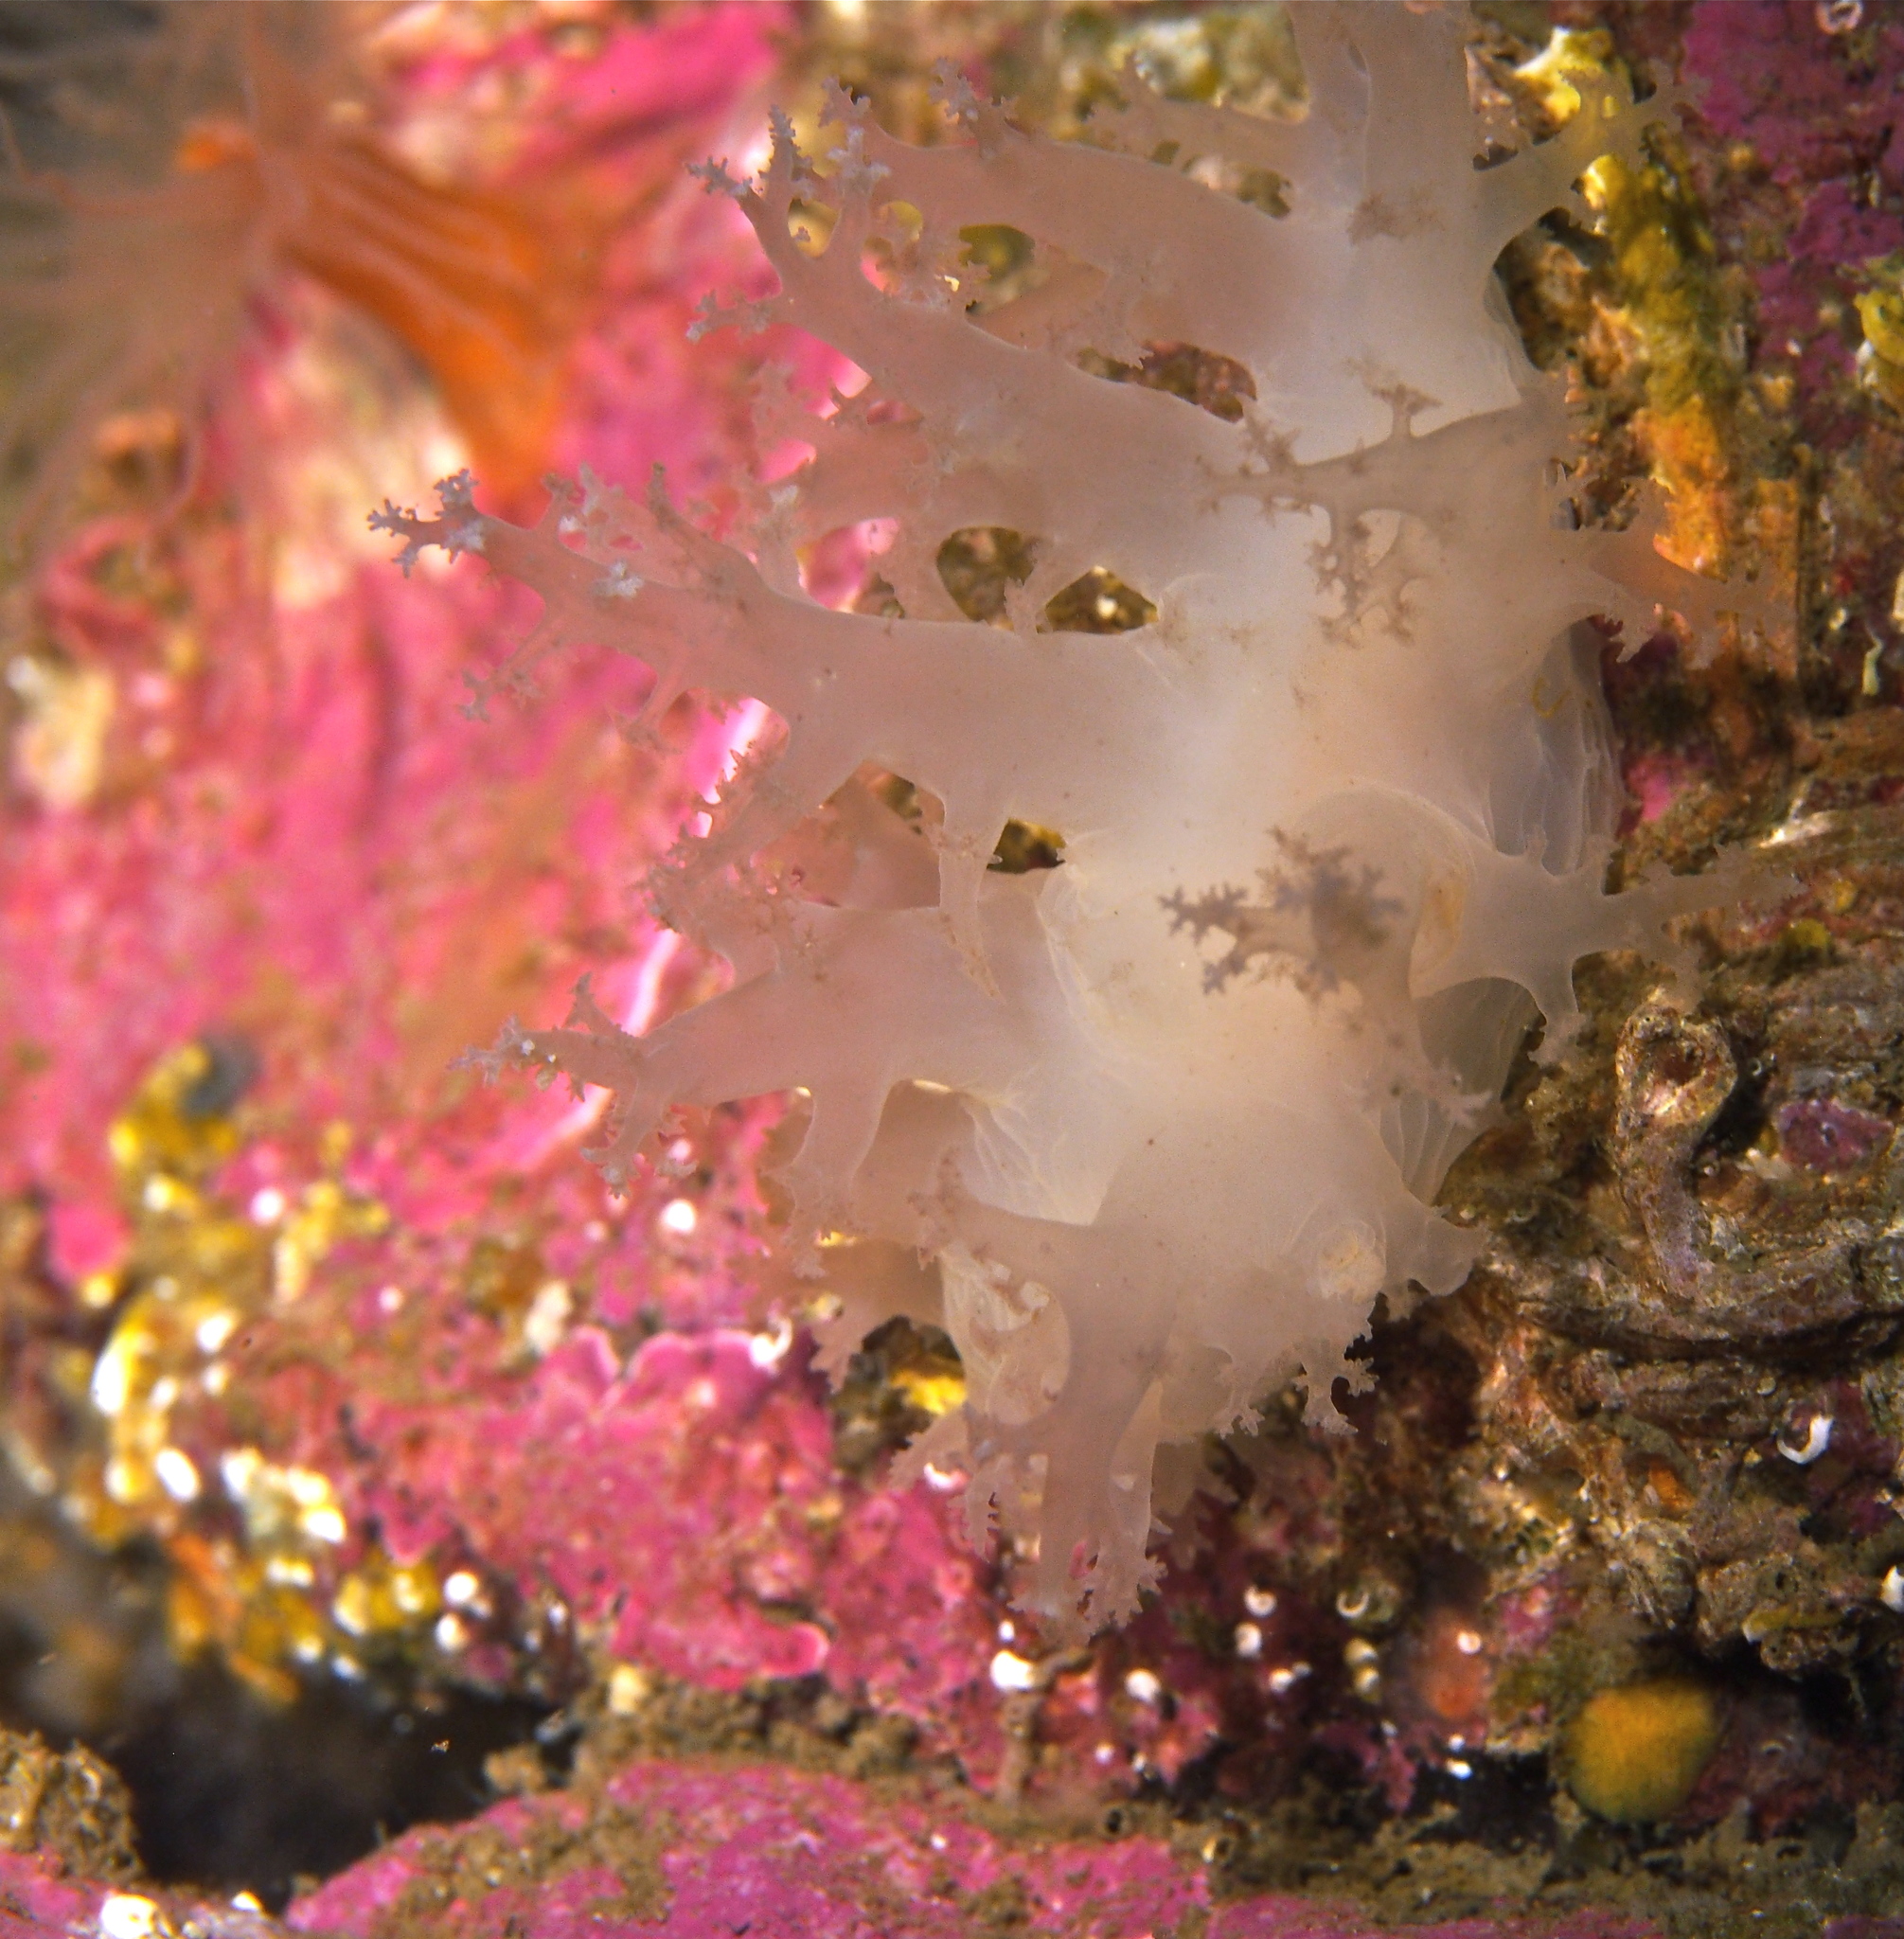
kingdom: Animalia
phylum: Mollusca
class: Gastropoda
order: Nudibranchia
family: Dendronotidae
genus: Dendronotus
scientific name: Dendronotus lacteus
